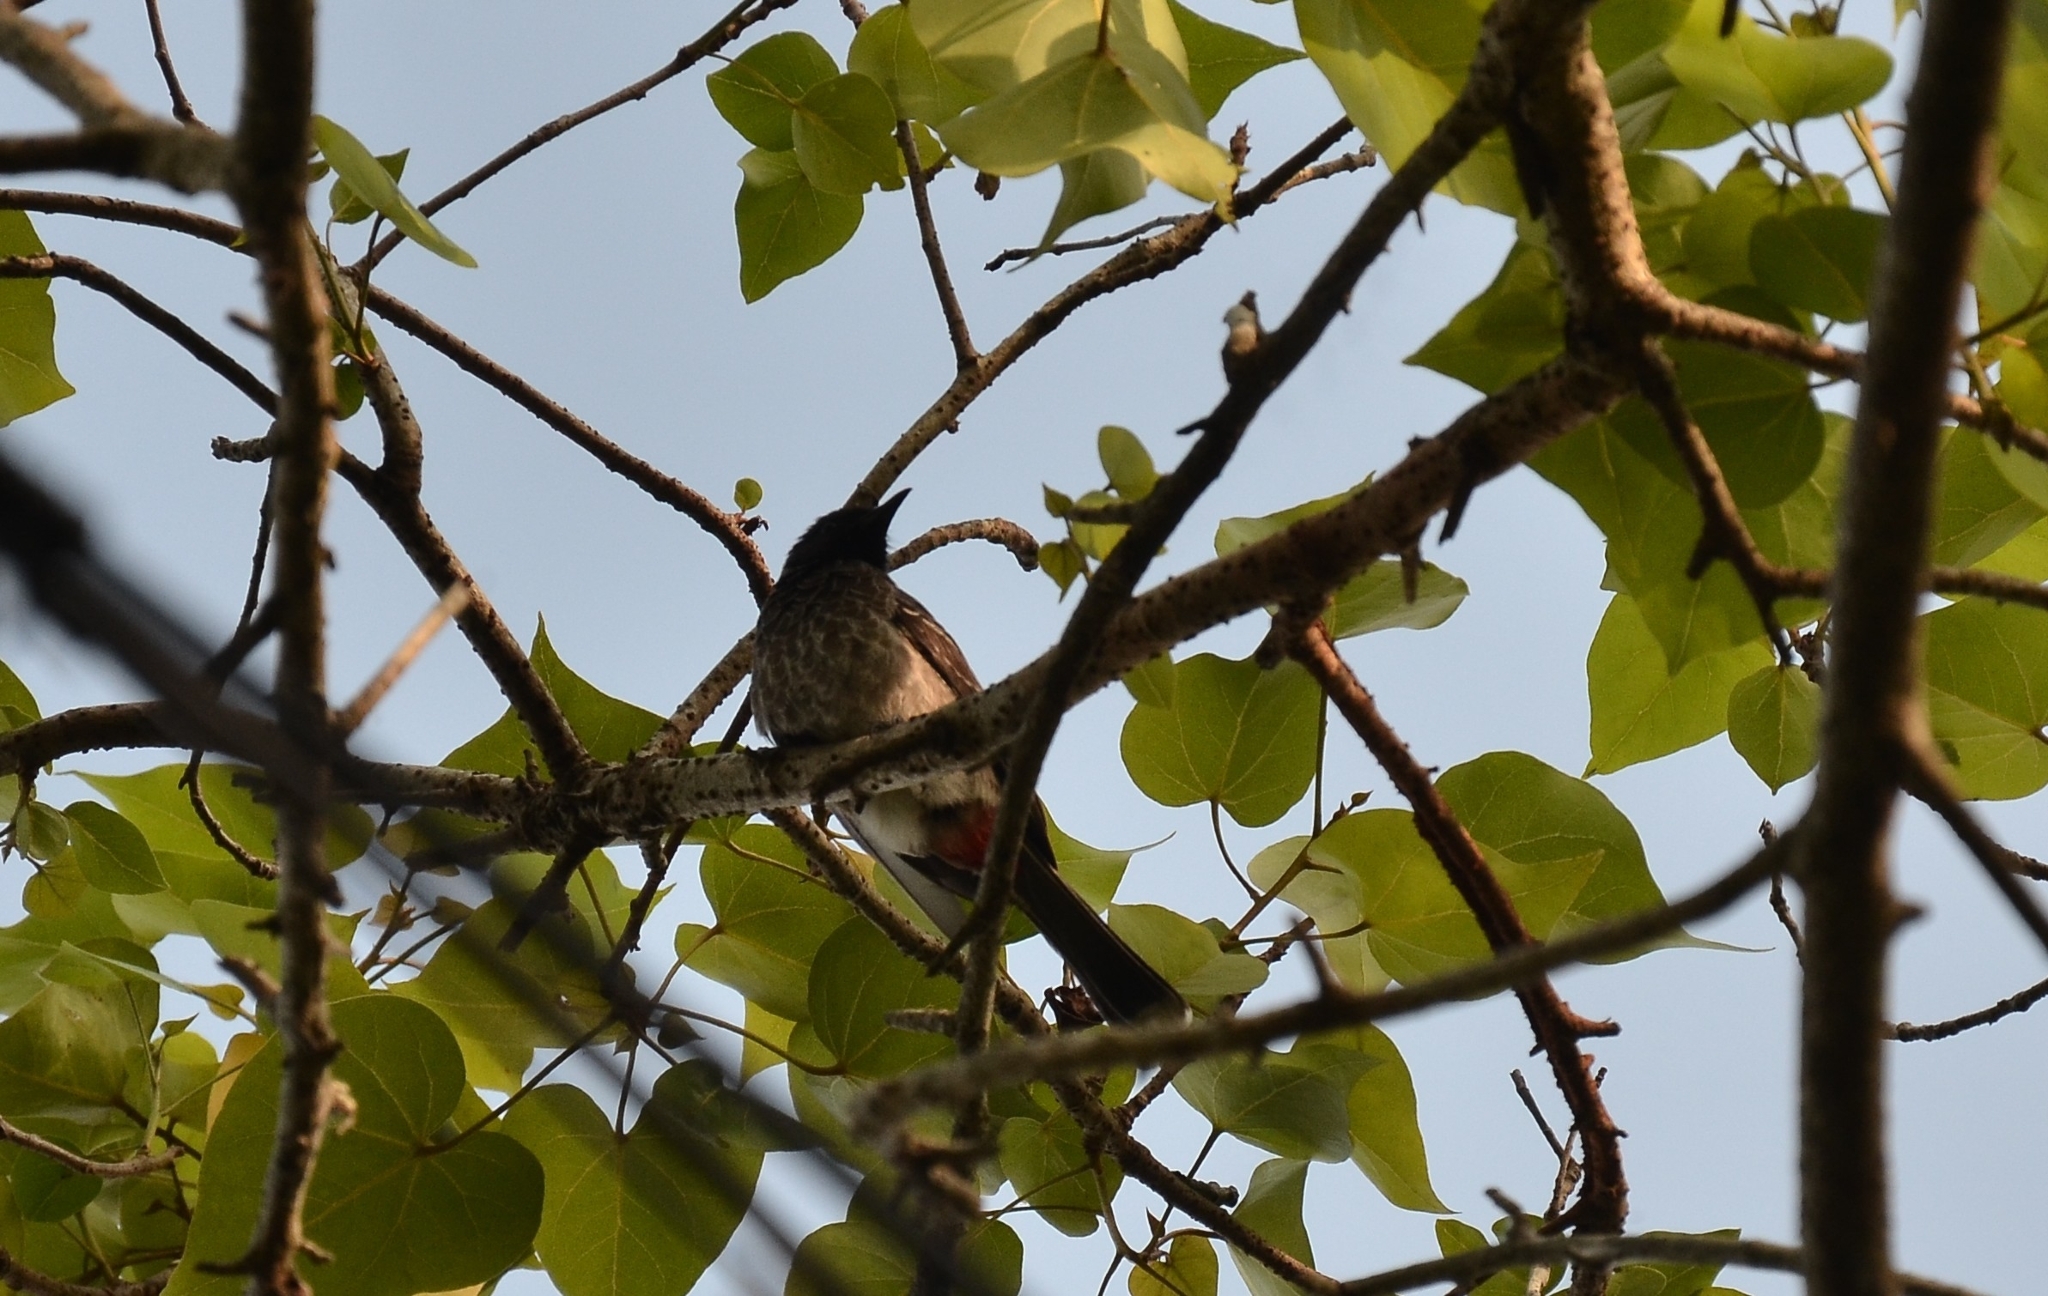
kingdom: Animalia
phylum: Chordata
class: Aves
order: Passeriformes
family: Pycnonotidae
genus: Pycnonotus
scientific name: Pycnonotus cafer
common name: Red-vented bulbul
